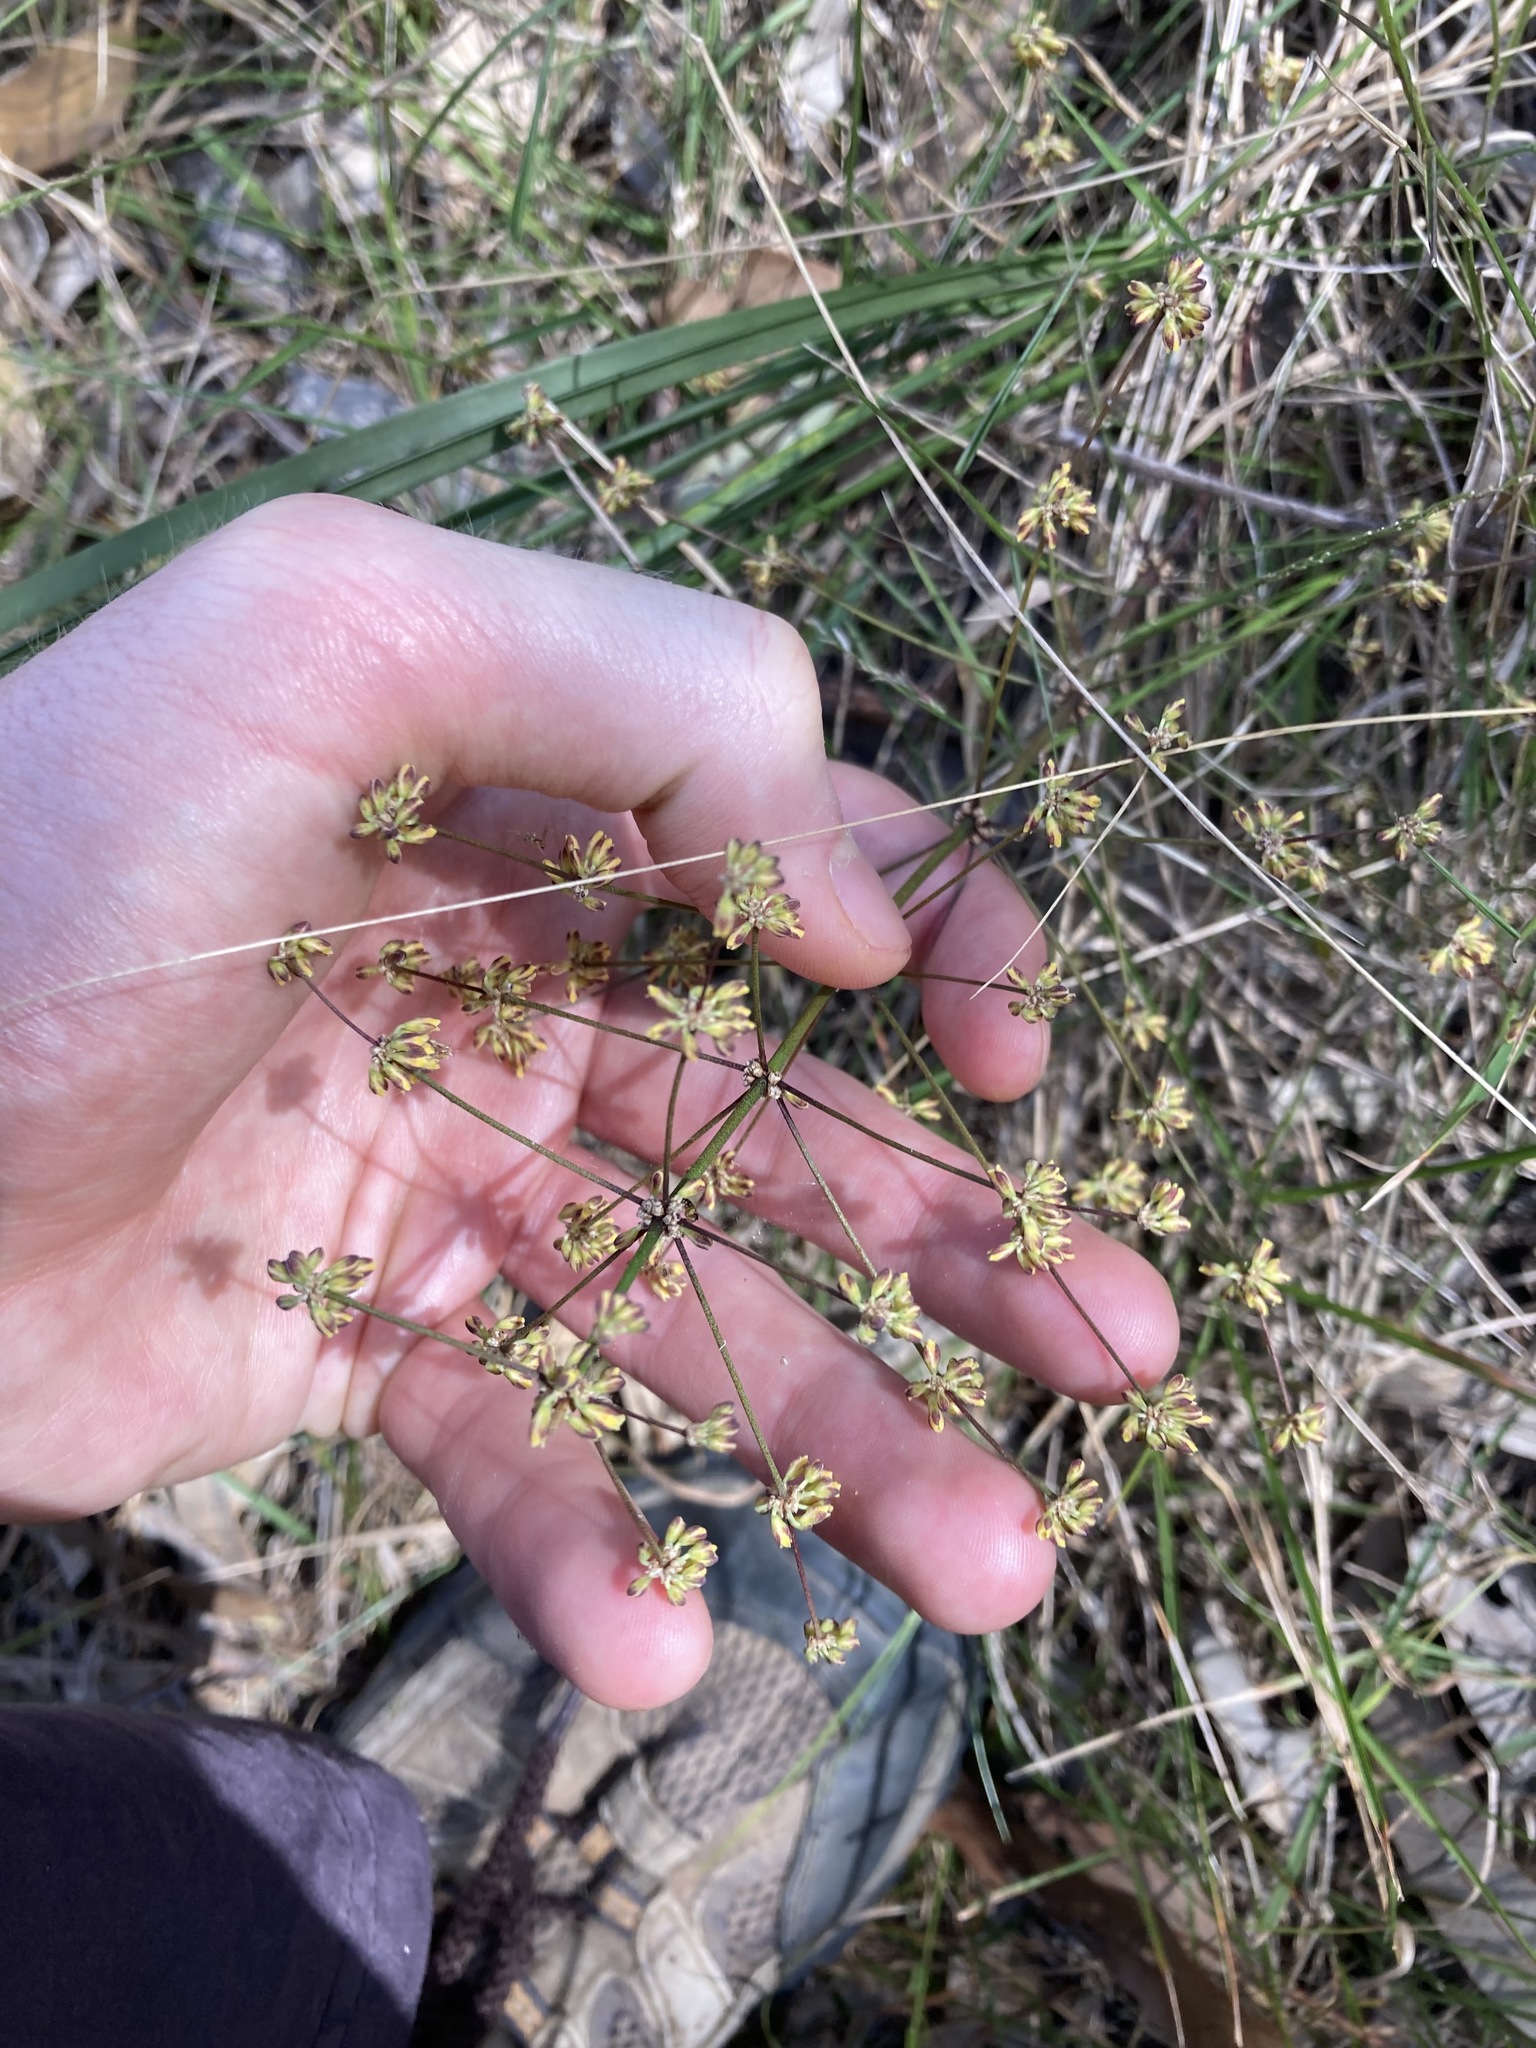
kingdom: Plantae
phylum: Tracheophyta
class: Liliopsida
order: Asparagales
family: Asparagaceae
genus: Lomandra
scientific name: Lomandra multiflora
